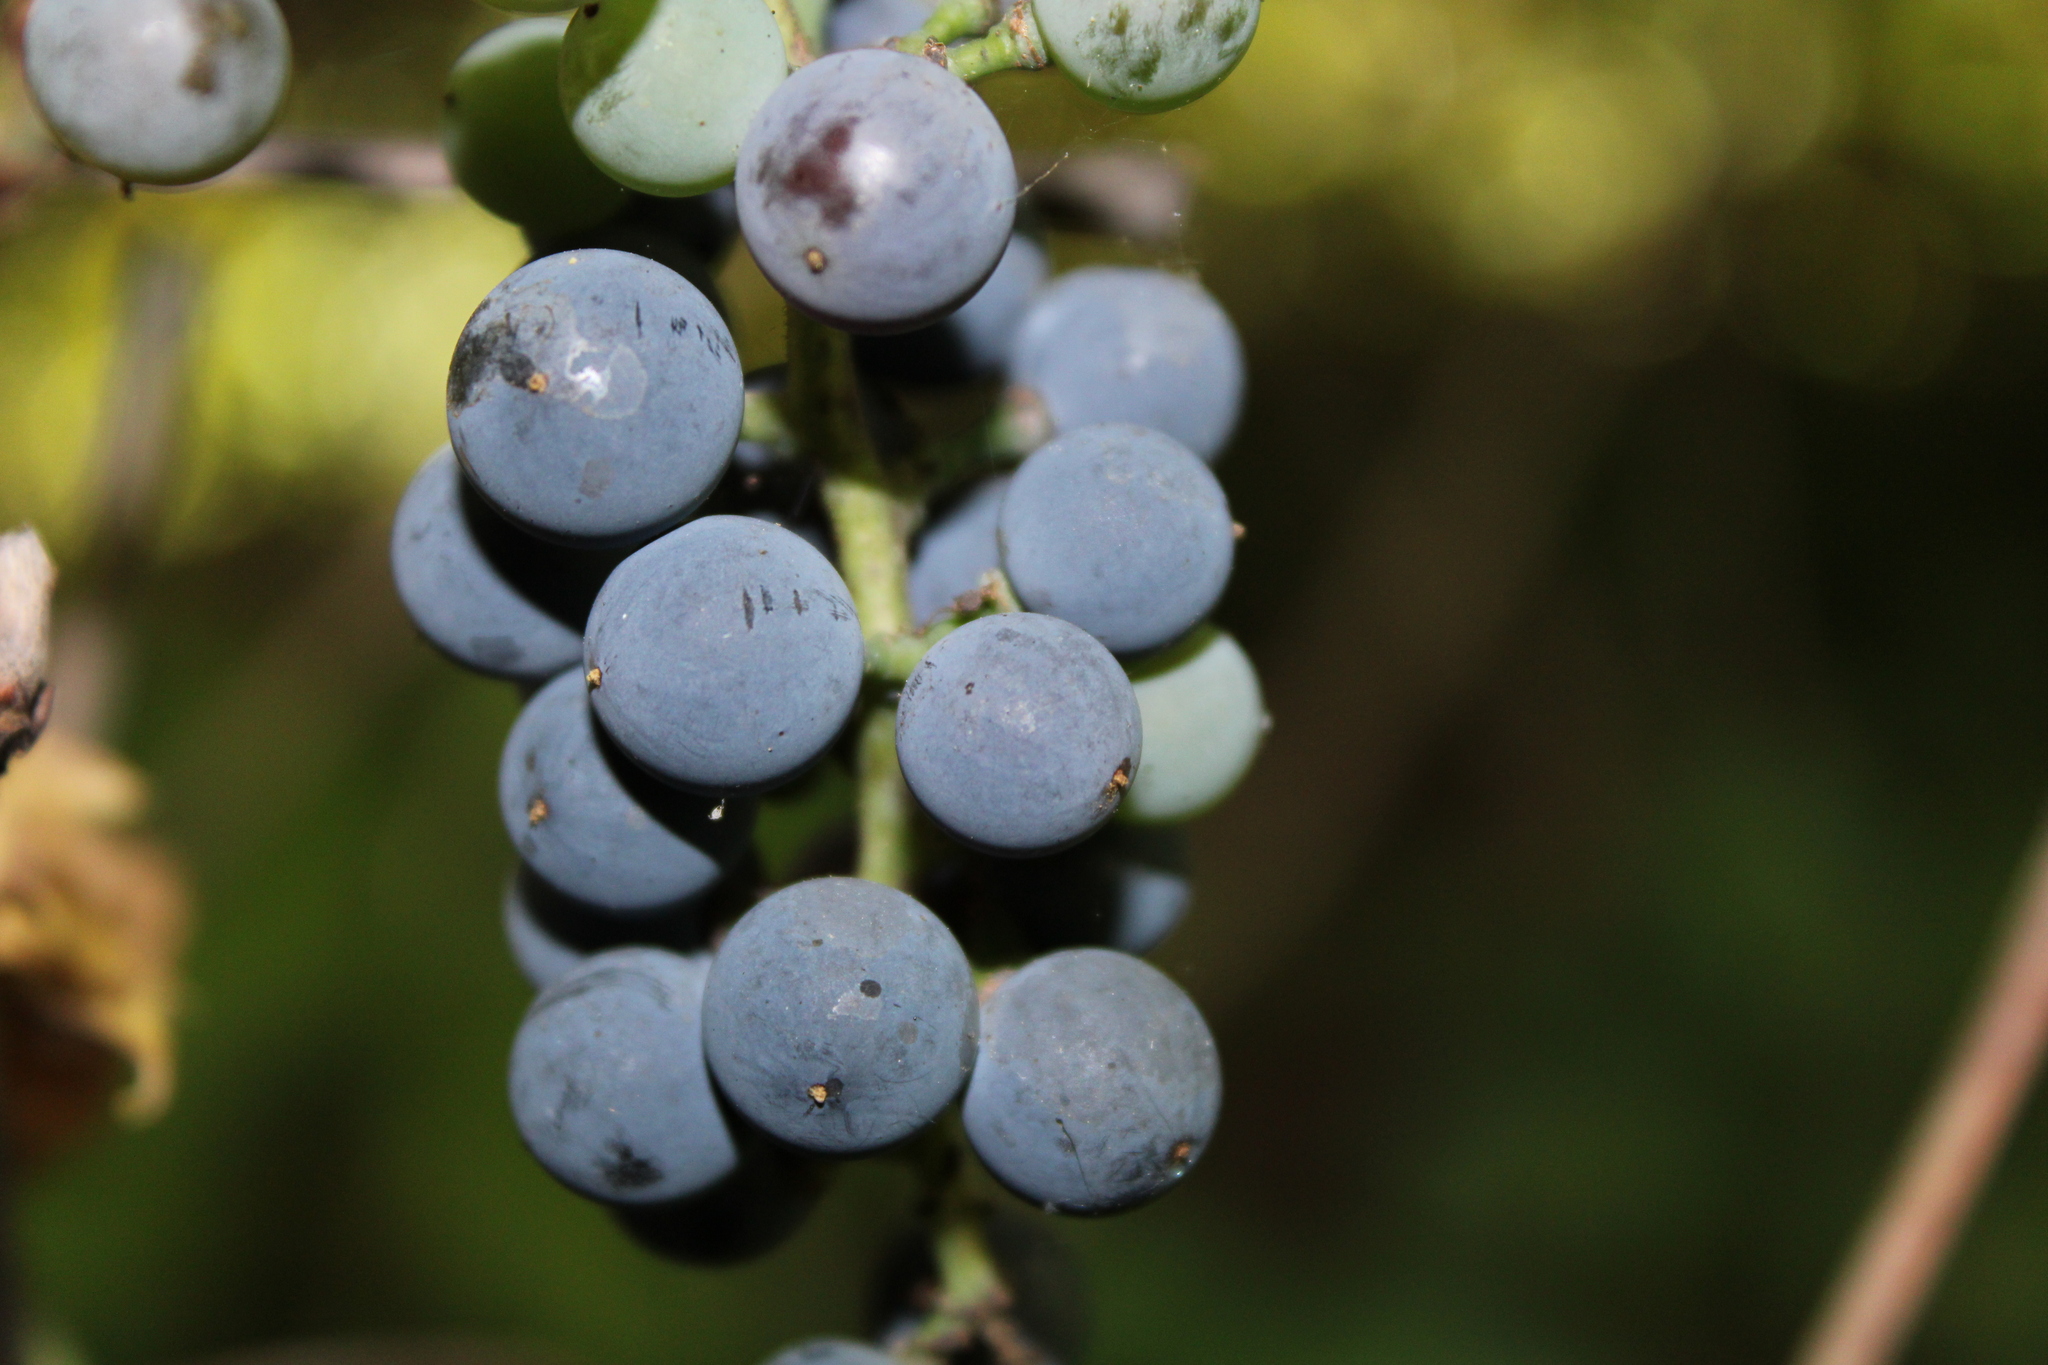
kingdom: Plantae
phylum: Tracheophyta
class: Magnoliopsida
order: Vitales
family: Vitaceae
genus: Vitis
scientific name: Vitis riparia
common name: Frost grape
